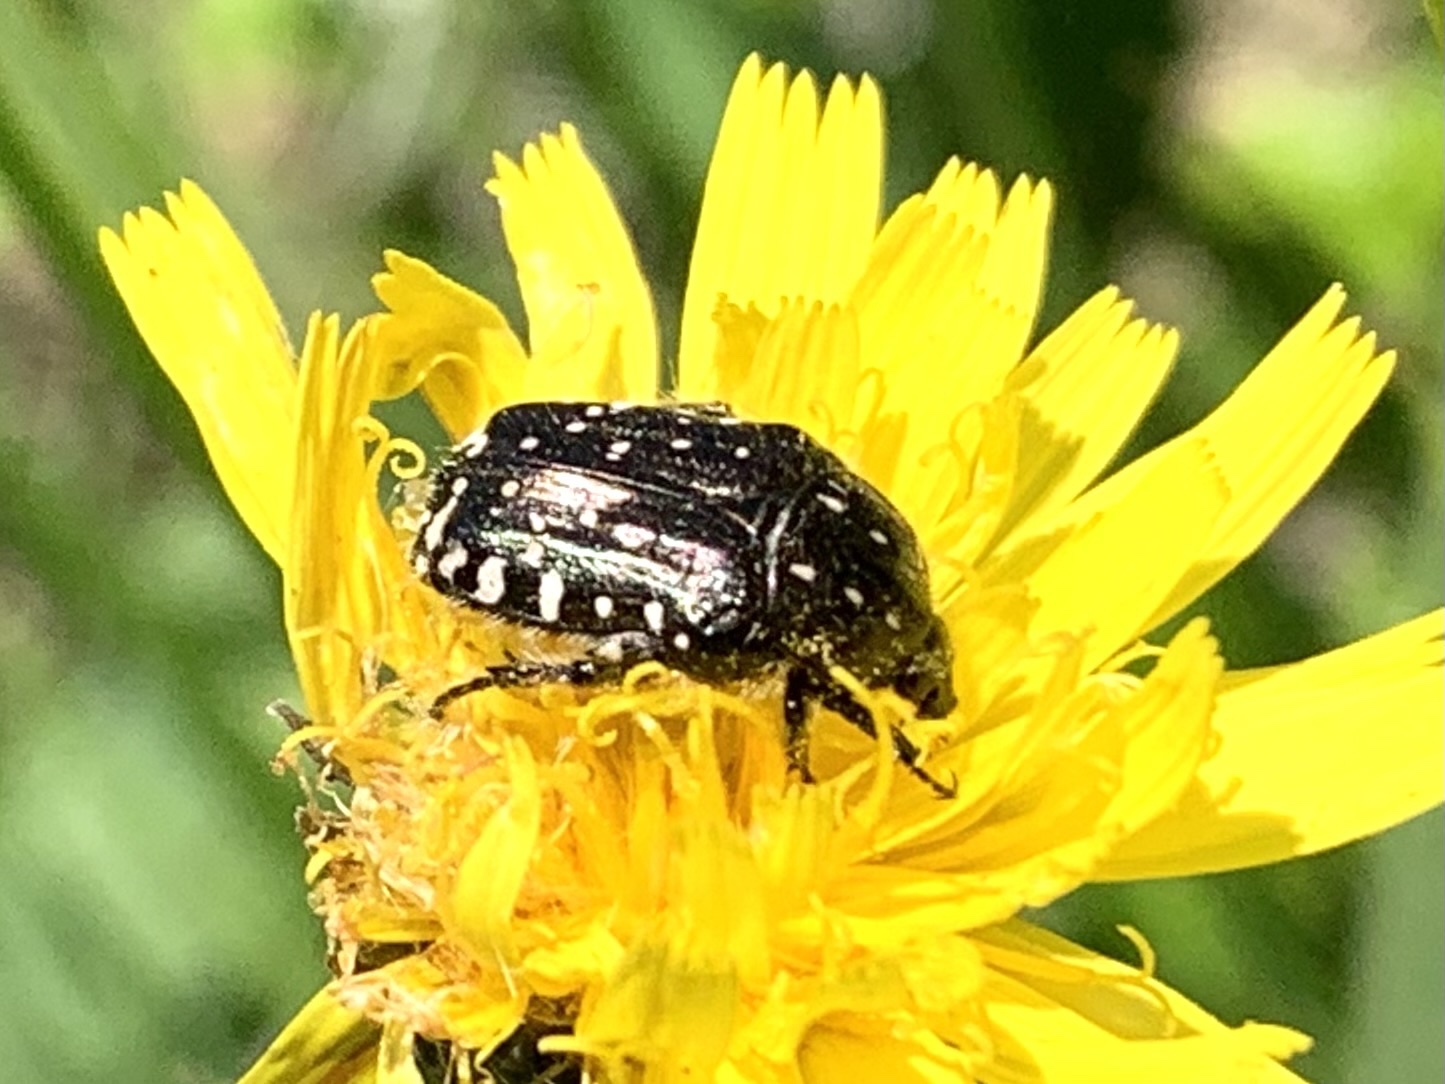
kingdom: Animalia
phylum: Arthropoda
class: Insecta
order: Coleoptera
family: Scarabaeidae
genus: Oxythyrea
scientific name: Oxythyrea funesta
